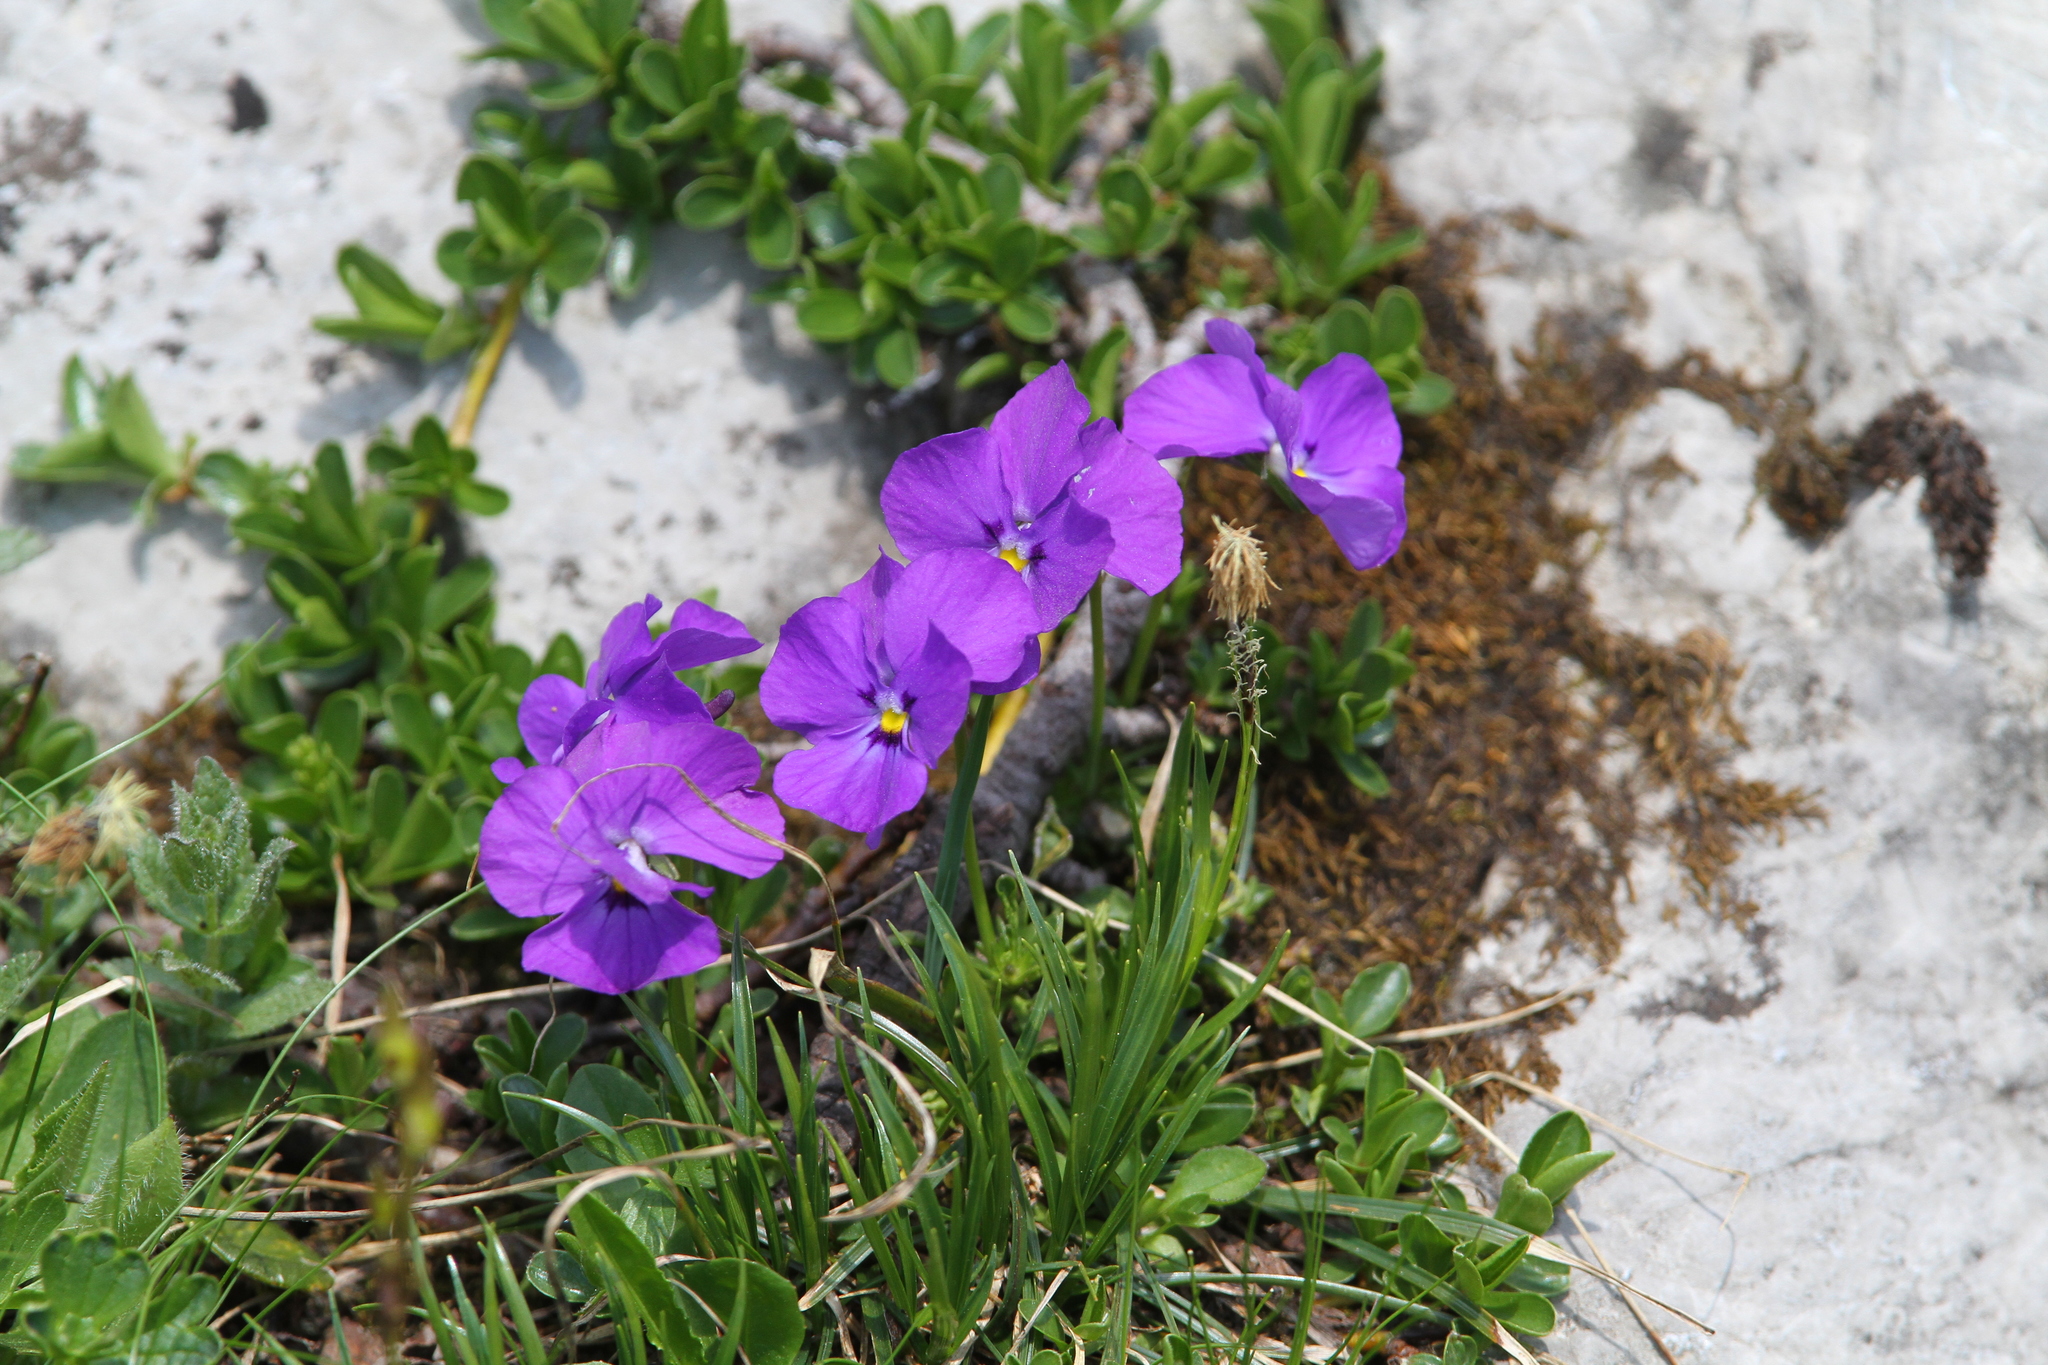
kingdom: Plantae
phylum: Tracheophyta
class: Magnoliopsida
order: Malpighiales
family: Violaceae
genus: Viola
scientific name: Viola calcarata
